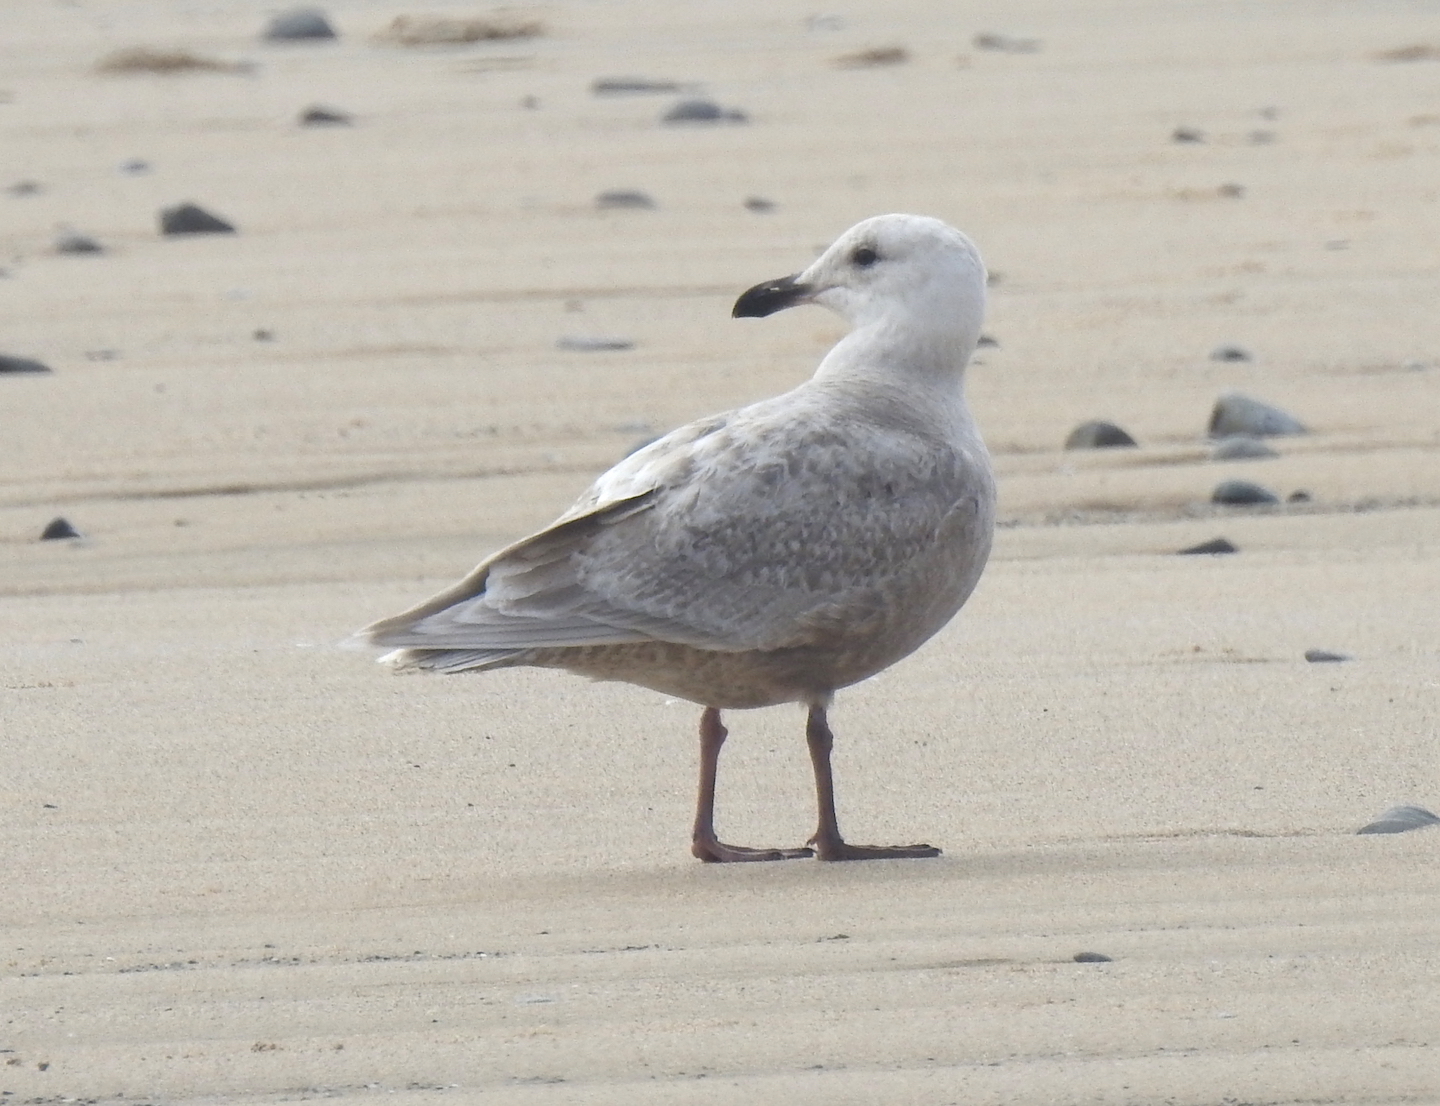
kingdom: Animalia
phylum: Chordata
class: Aves
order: Charadriiformes
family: Laridae
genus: Larus
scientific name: Larus glaucescens
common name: Glaucous-winged gull
